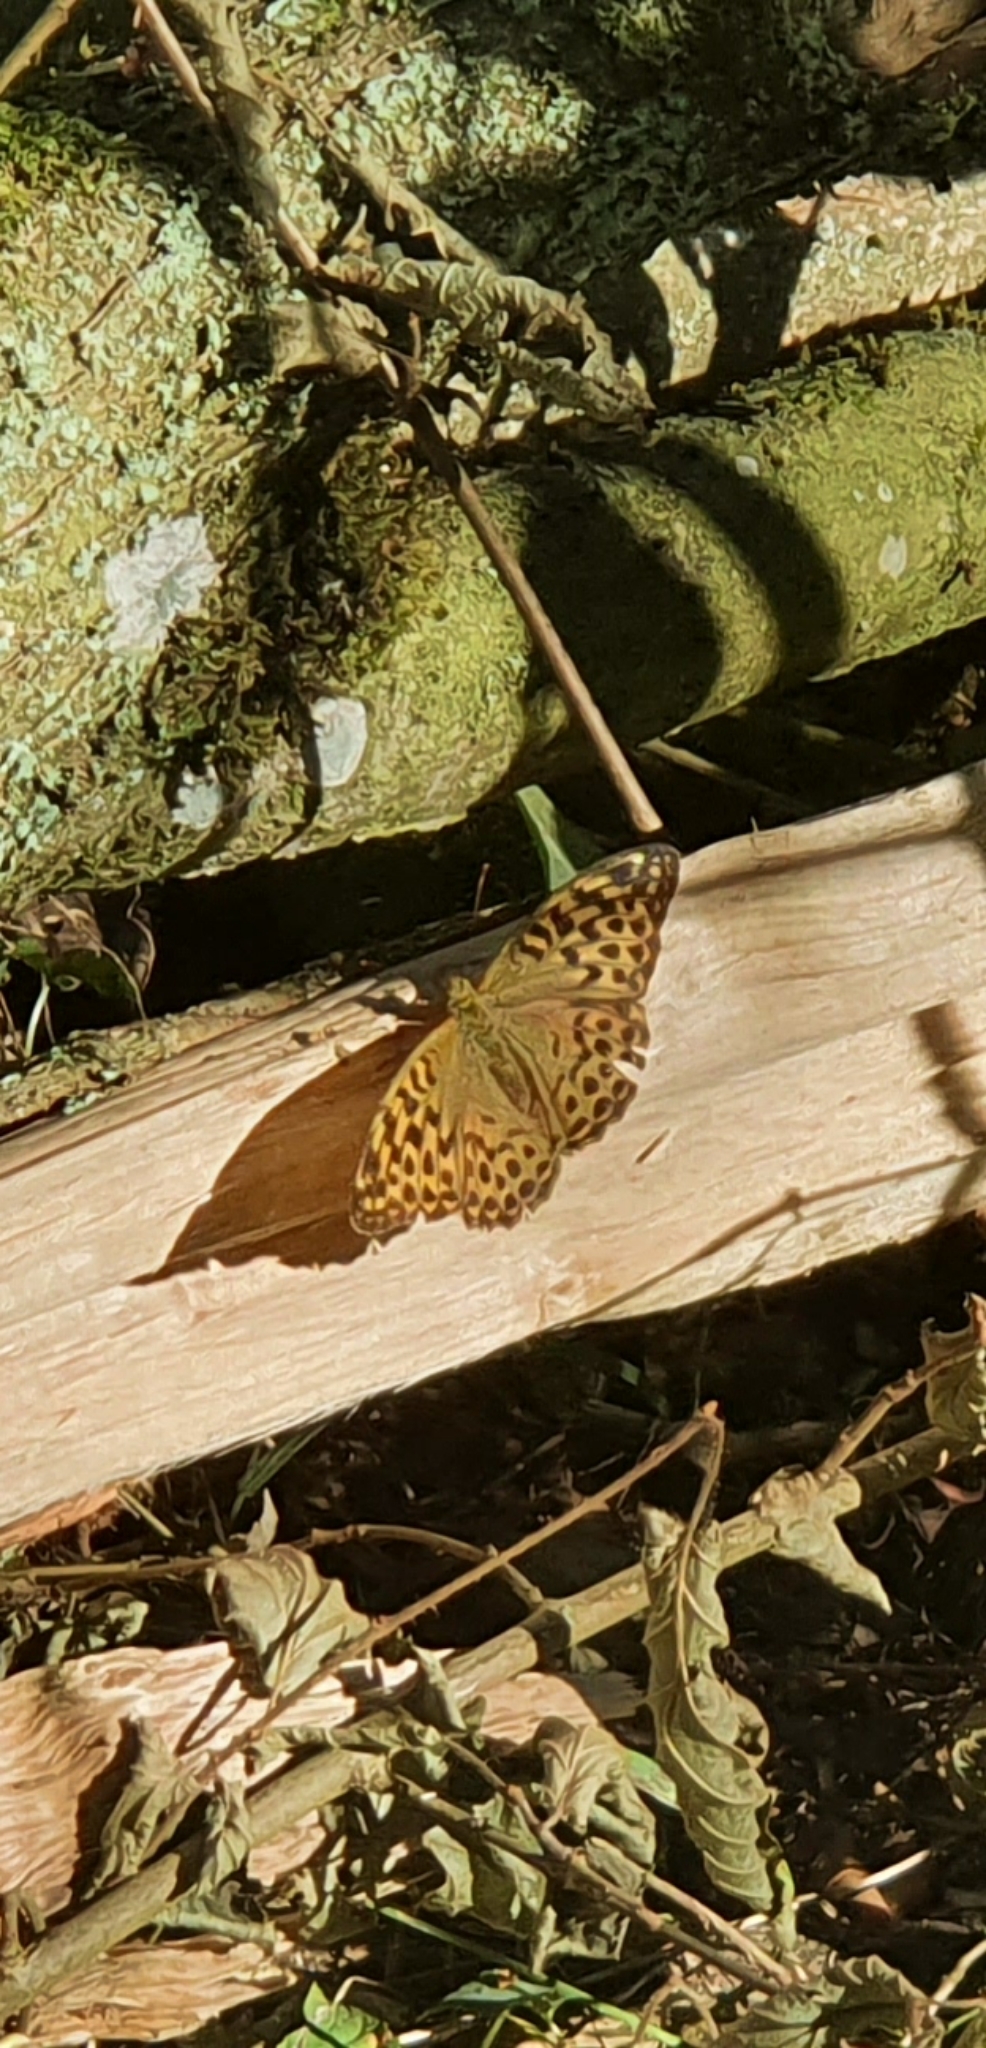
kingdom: Animalia
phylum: Arthropoda
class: Insecta
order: Lepidoptera
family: Nymphalidae
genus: Argynnis
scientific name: Argynnis paphia
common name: Silver-washed fritillary
